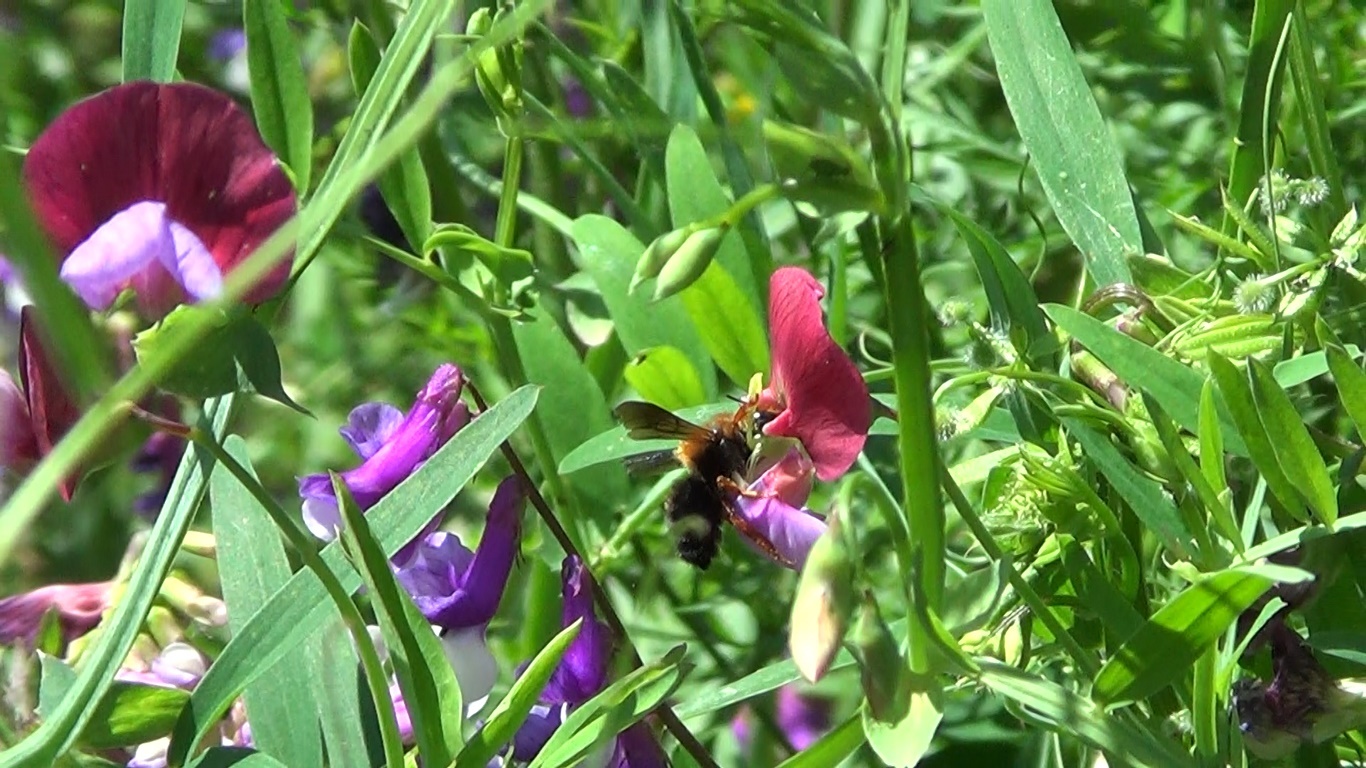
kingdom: Animalia
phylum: Arthropoda
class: Insecta
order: Hymenoptera
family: Megachilidae
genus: Megachile
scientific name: Megachile sicula
